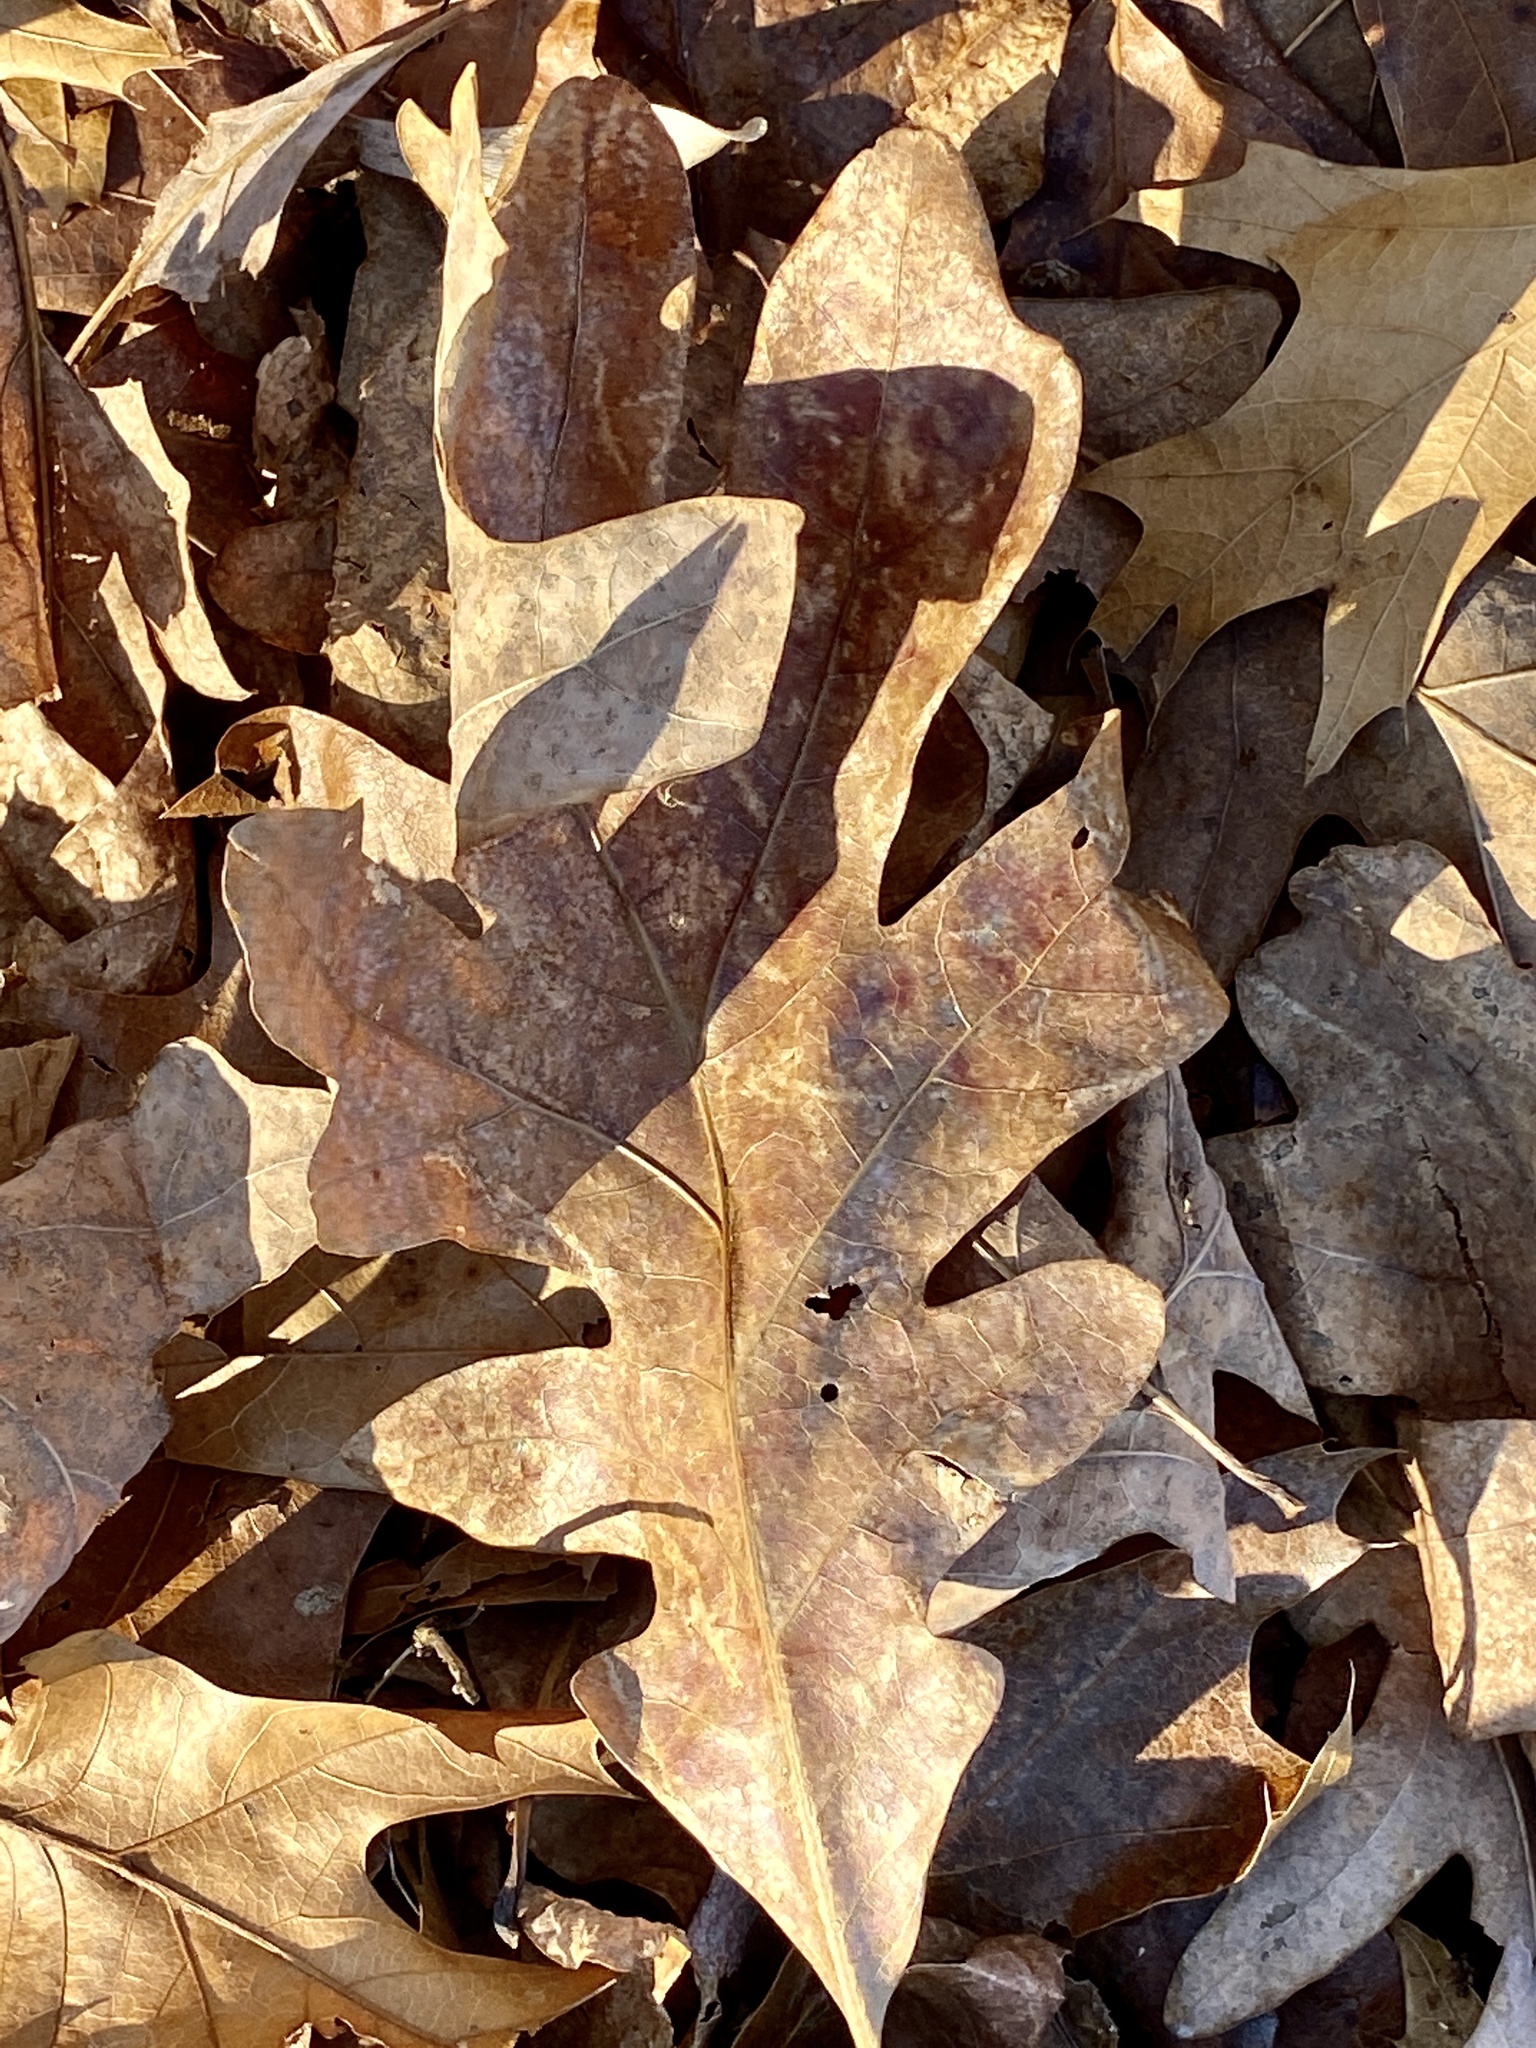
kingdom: Plantae
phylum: Tracheophyta
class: Magnoliopsida
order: Fagales
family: Fagaceae
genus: Quercus
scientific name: Quercus alba
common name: White oak
